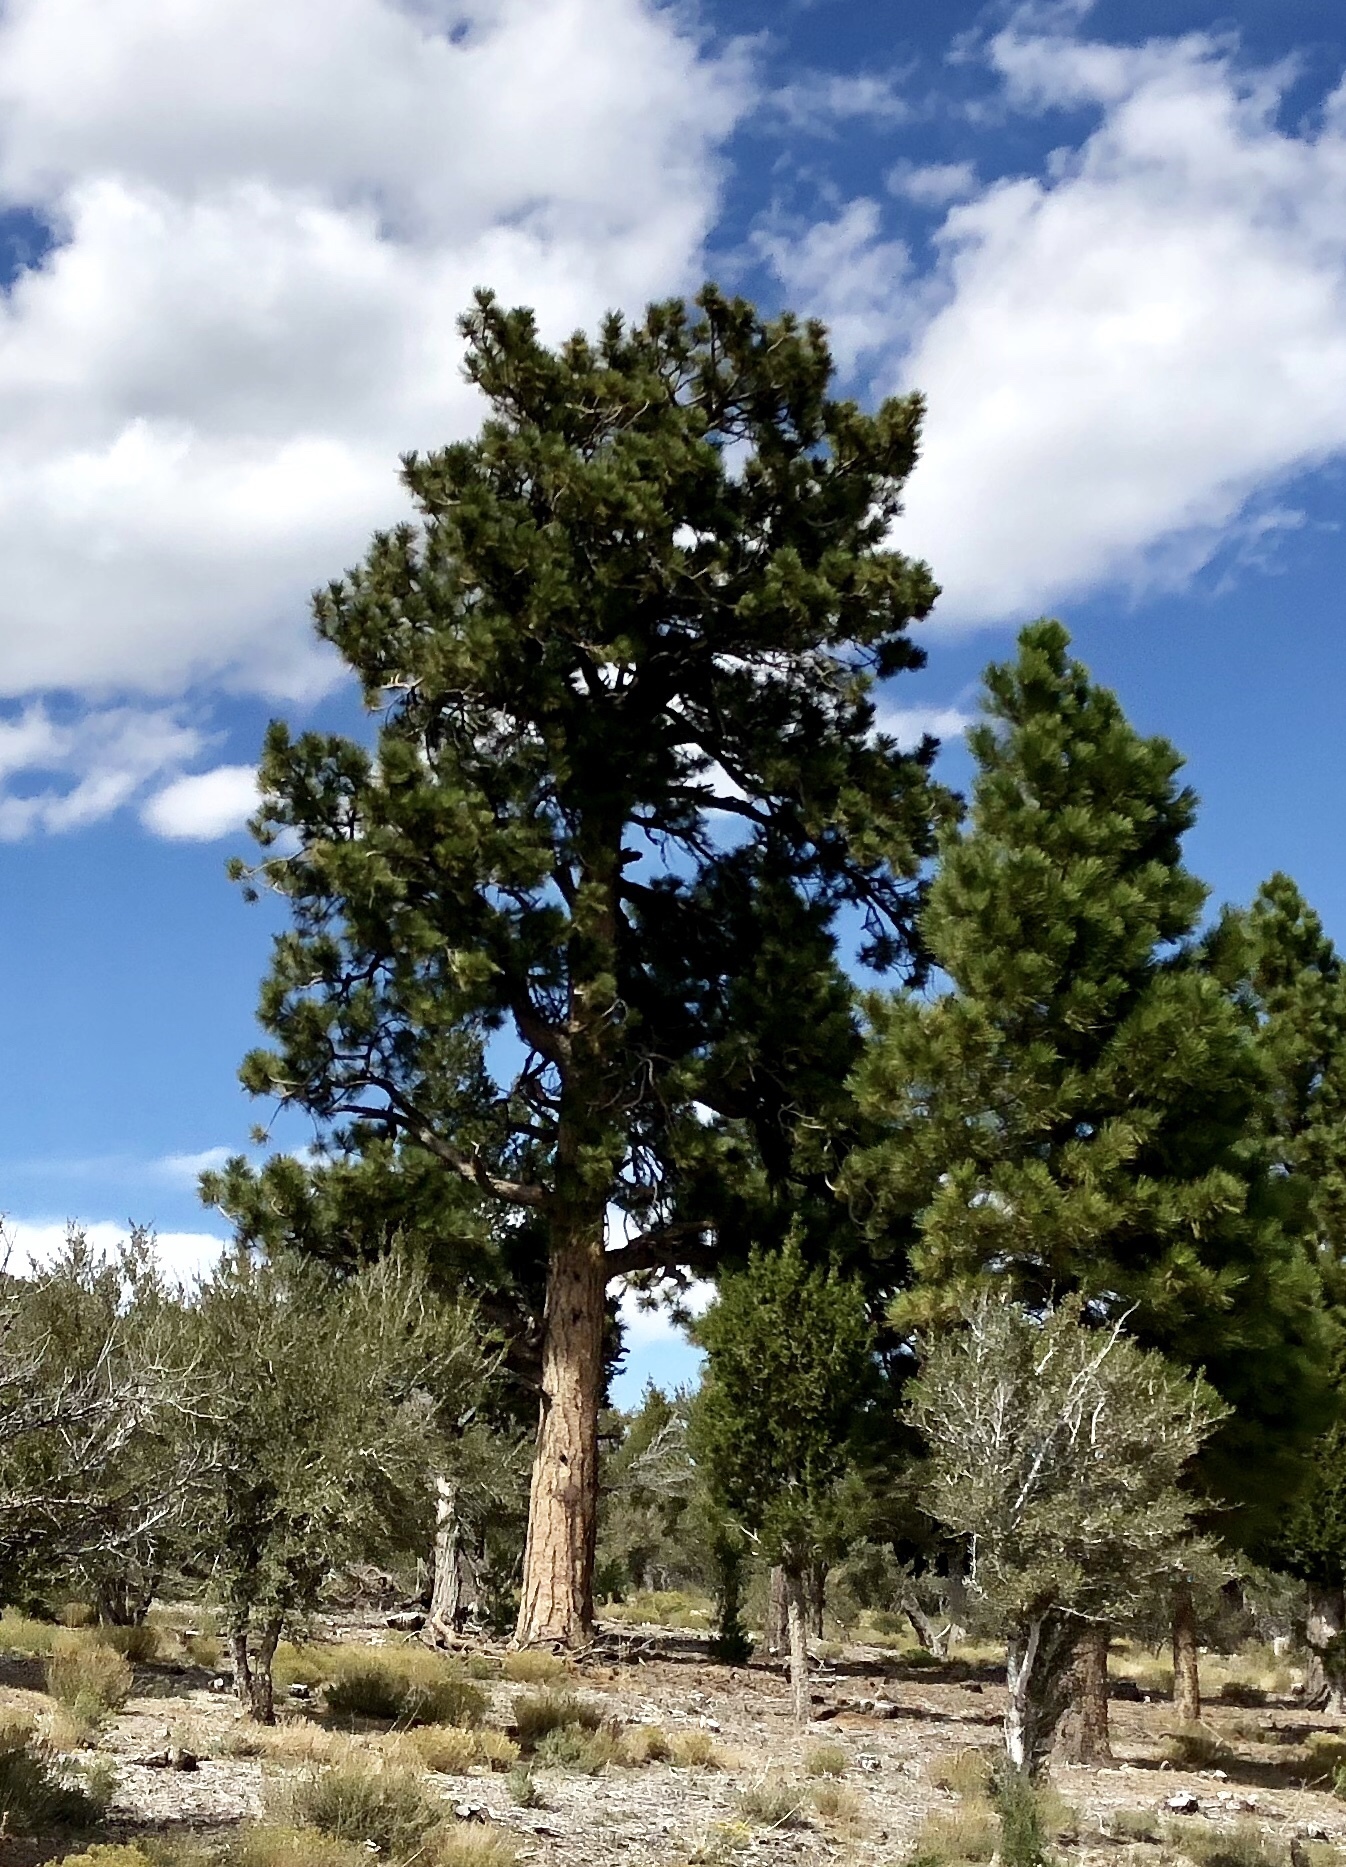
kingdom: Plantae
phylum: Tracheophyta
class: Pinopsida
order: Pinales
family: Pinaceae
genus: Pinus
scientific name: Pinus ponderosa
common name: Western yellow-pine
